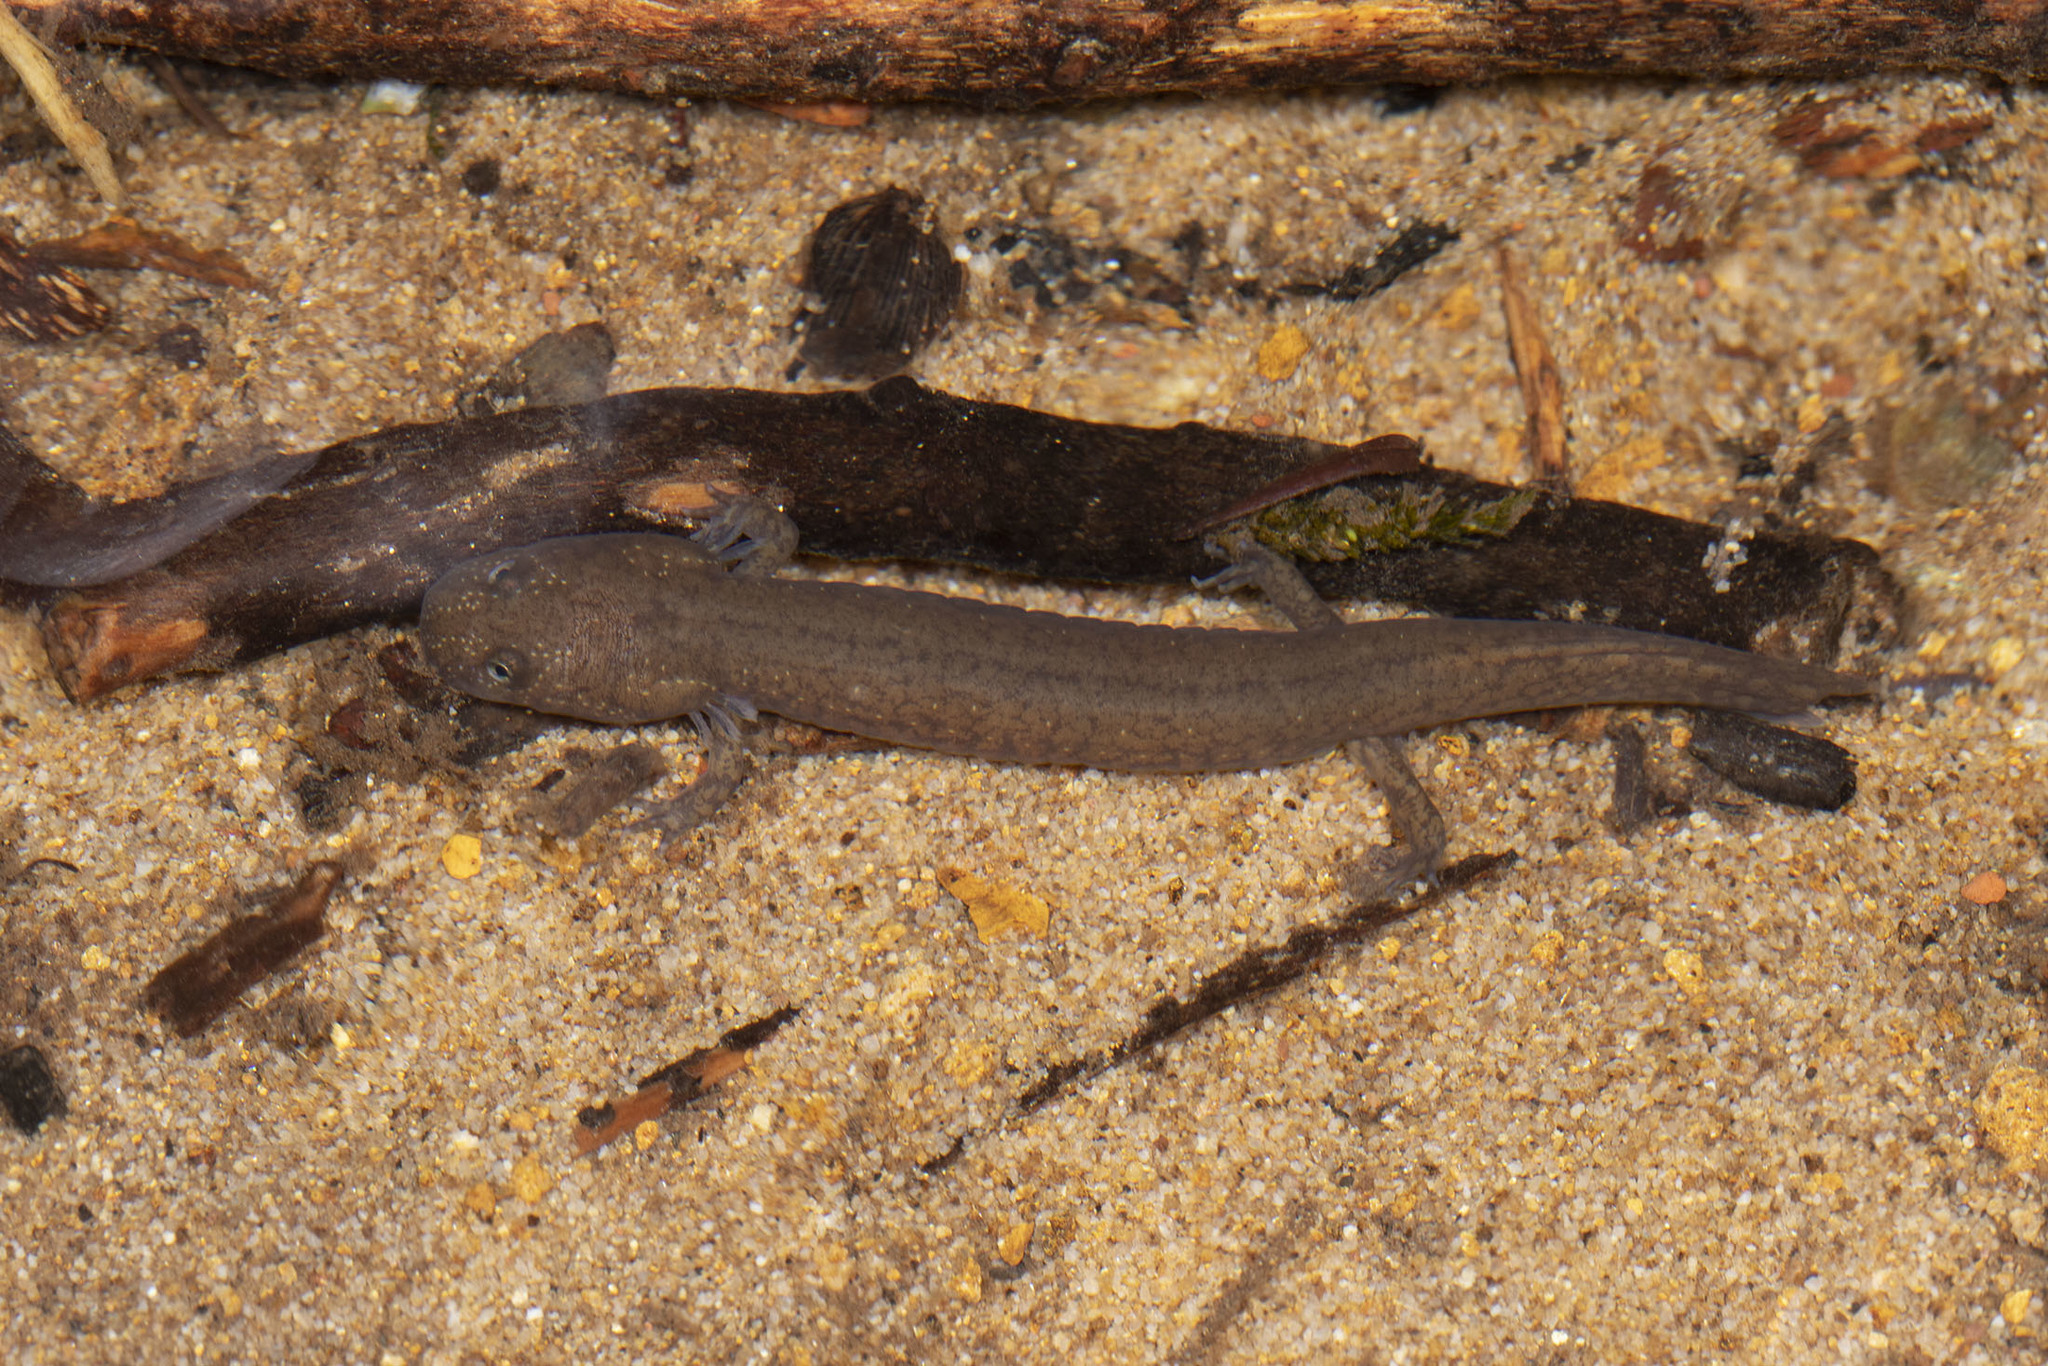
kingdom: Animalia
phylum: Chordata
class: Amphibia
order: Caudata
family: Plethodontidae
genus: Gyrinophilus
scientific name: Gyrinophilus porphyriticus
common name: Spring salamander
